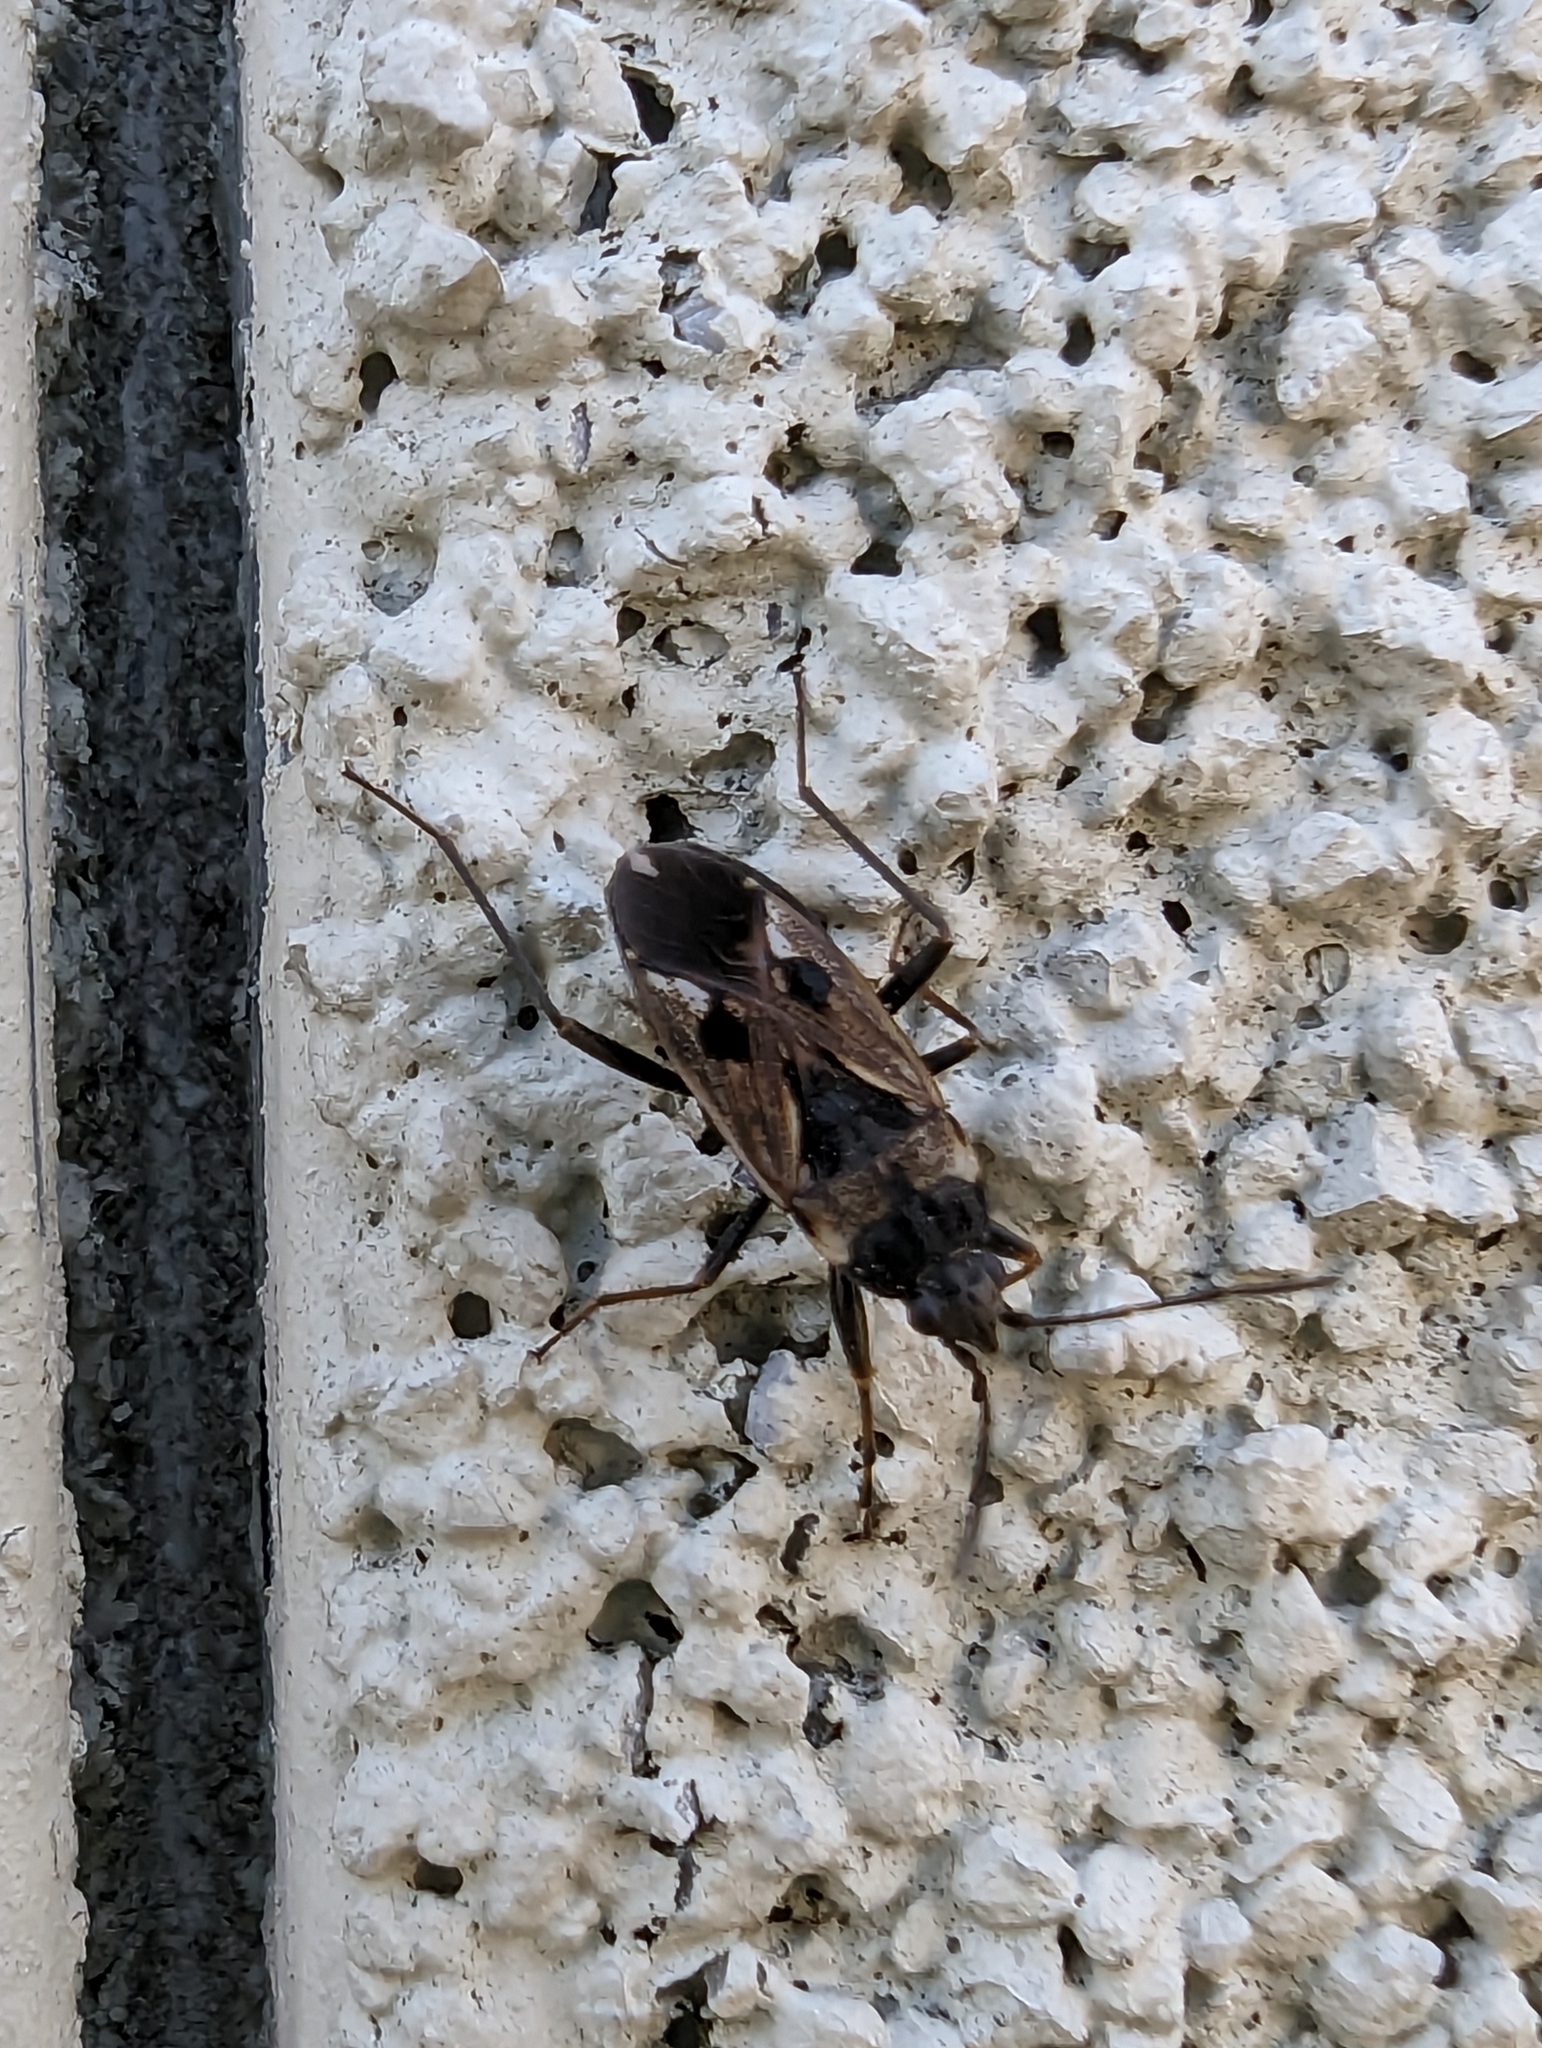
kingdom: Animalia
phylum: Arthropoda
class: Insecta
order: Hemiptera
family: Rhyparochromidae
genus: Rhyparochromus
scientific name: Rhyparochromus vulgaris
